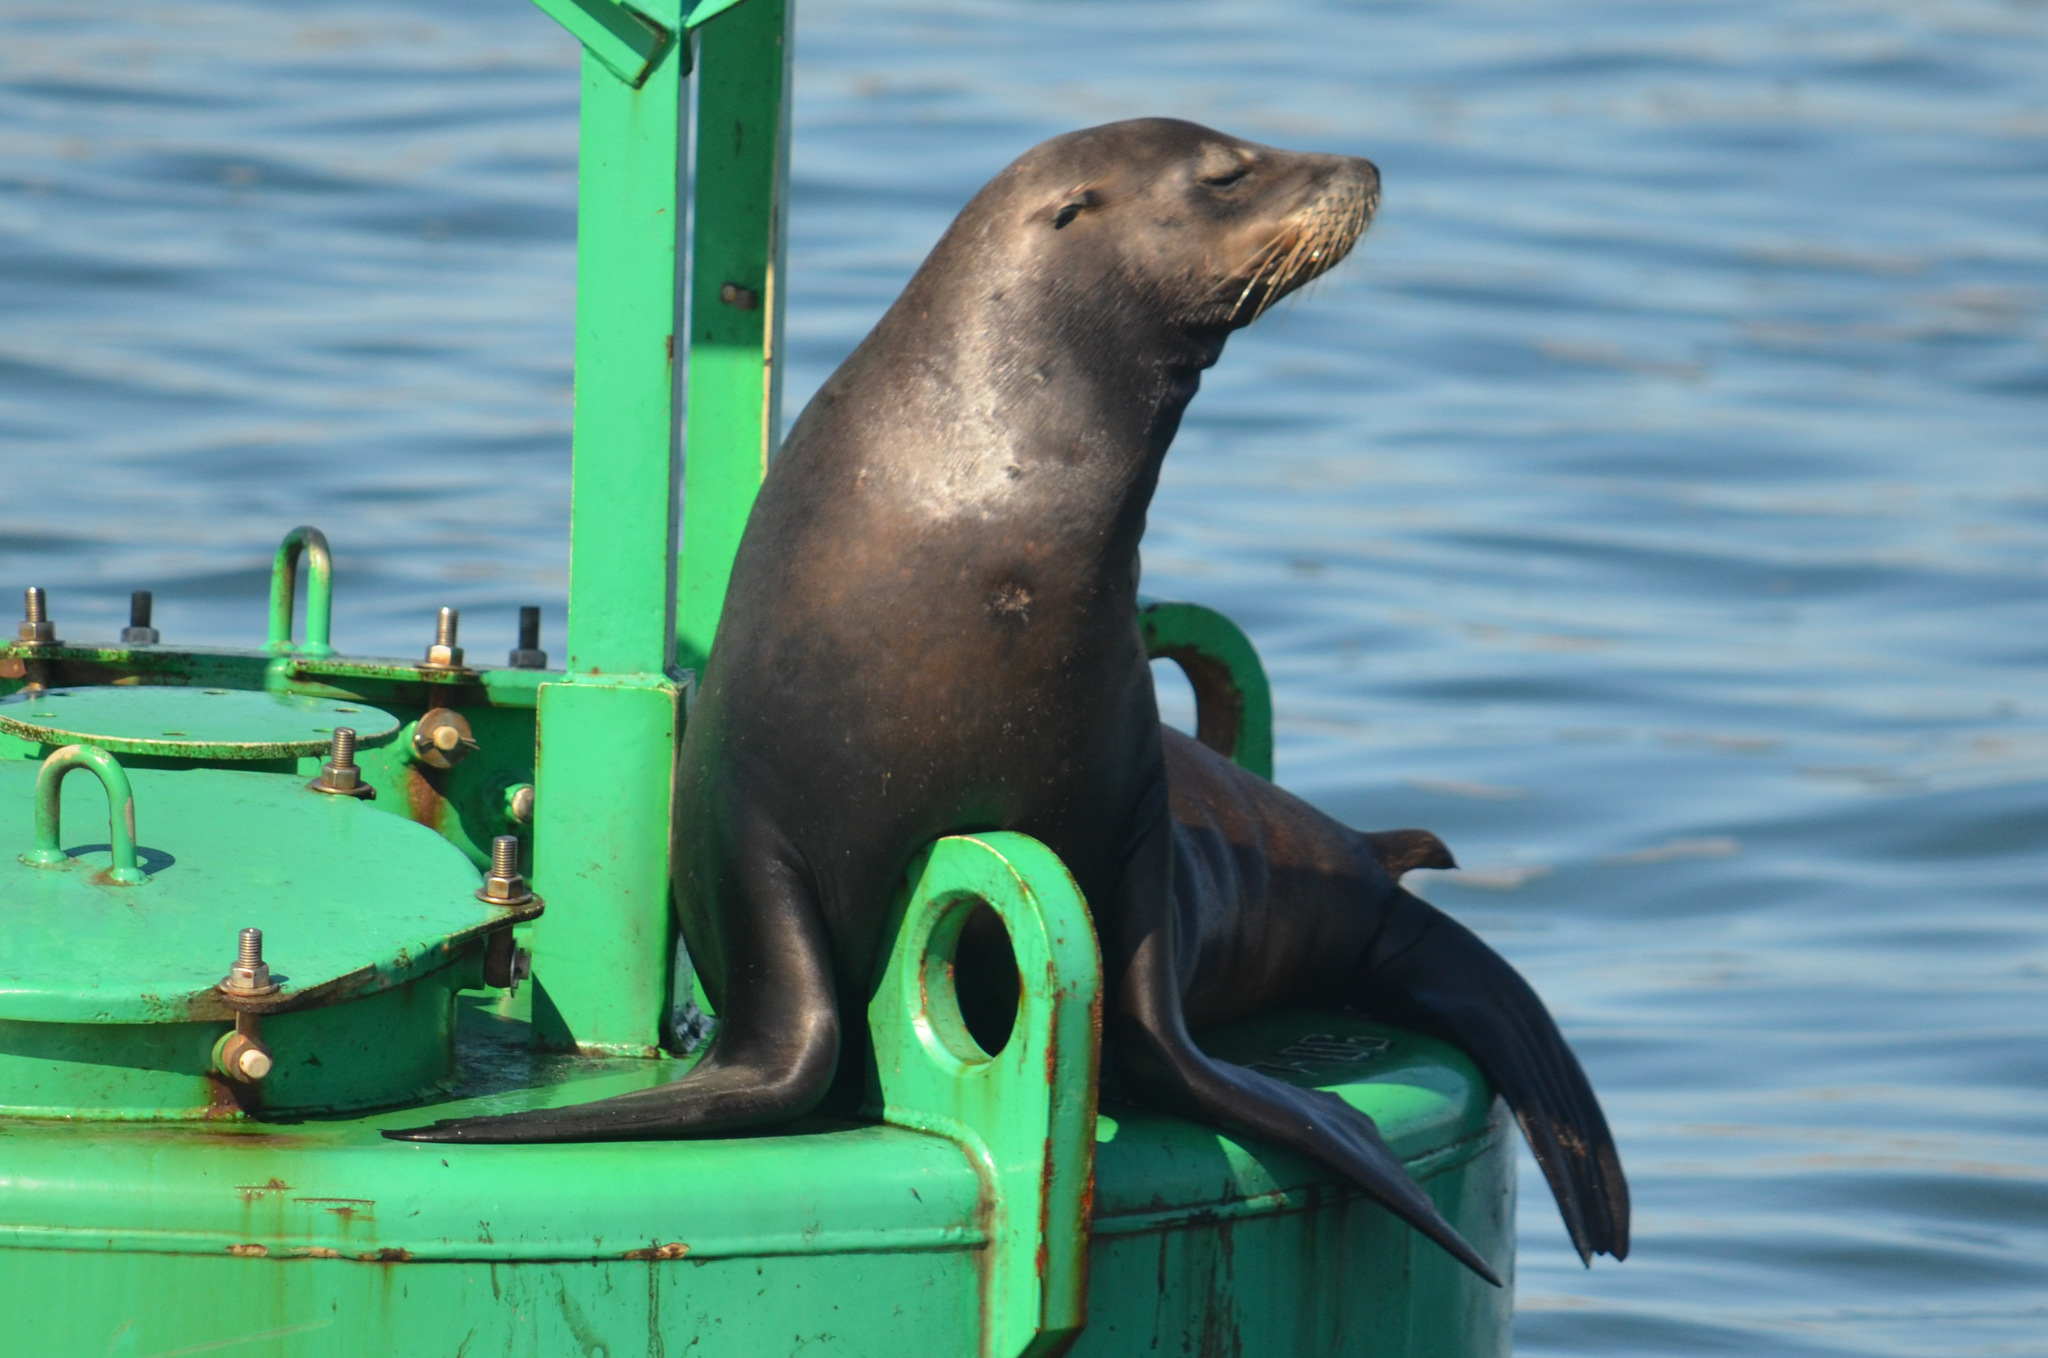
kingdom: Animalia
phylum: Chordata
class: Mammalia
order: Carnivora
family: Otariidae
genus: Zalophus
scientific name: Zalophus californianus
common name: California sea lion
